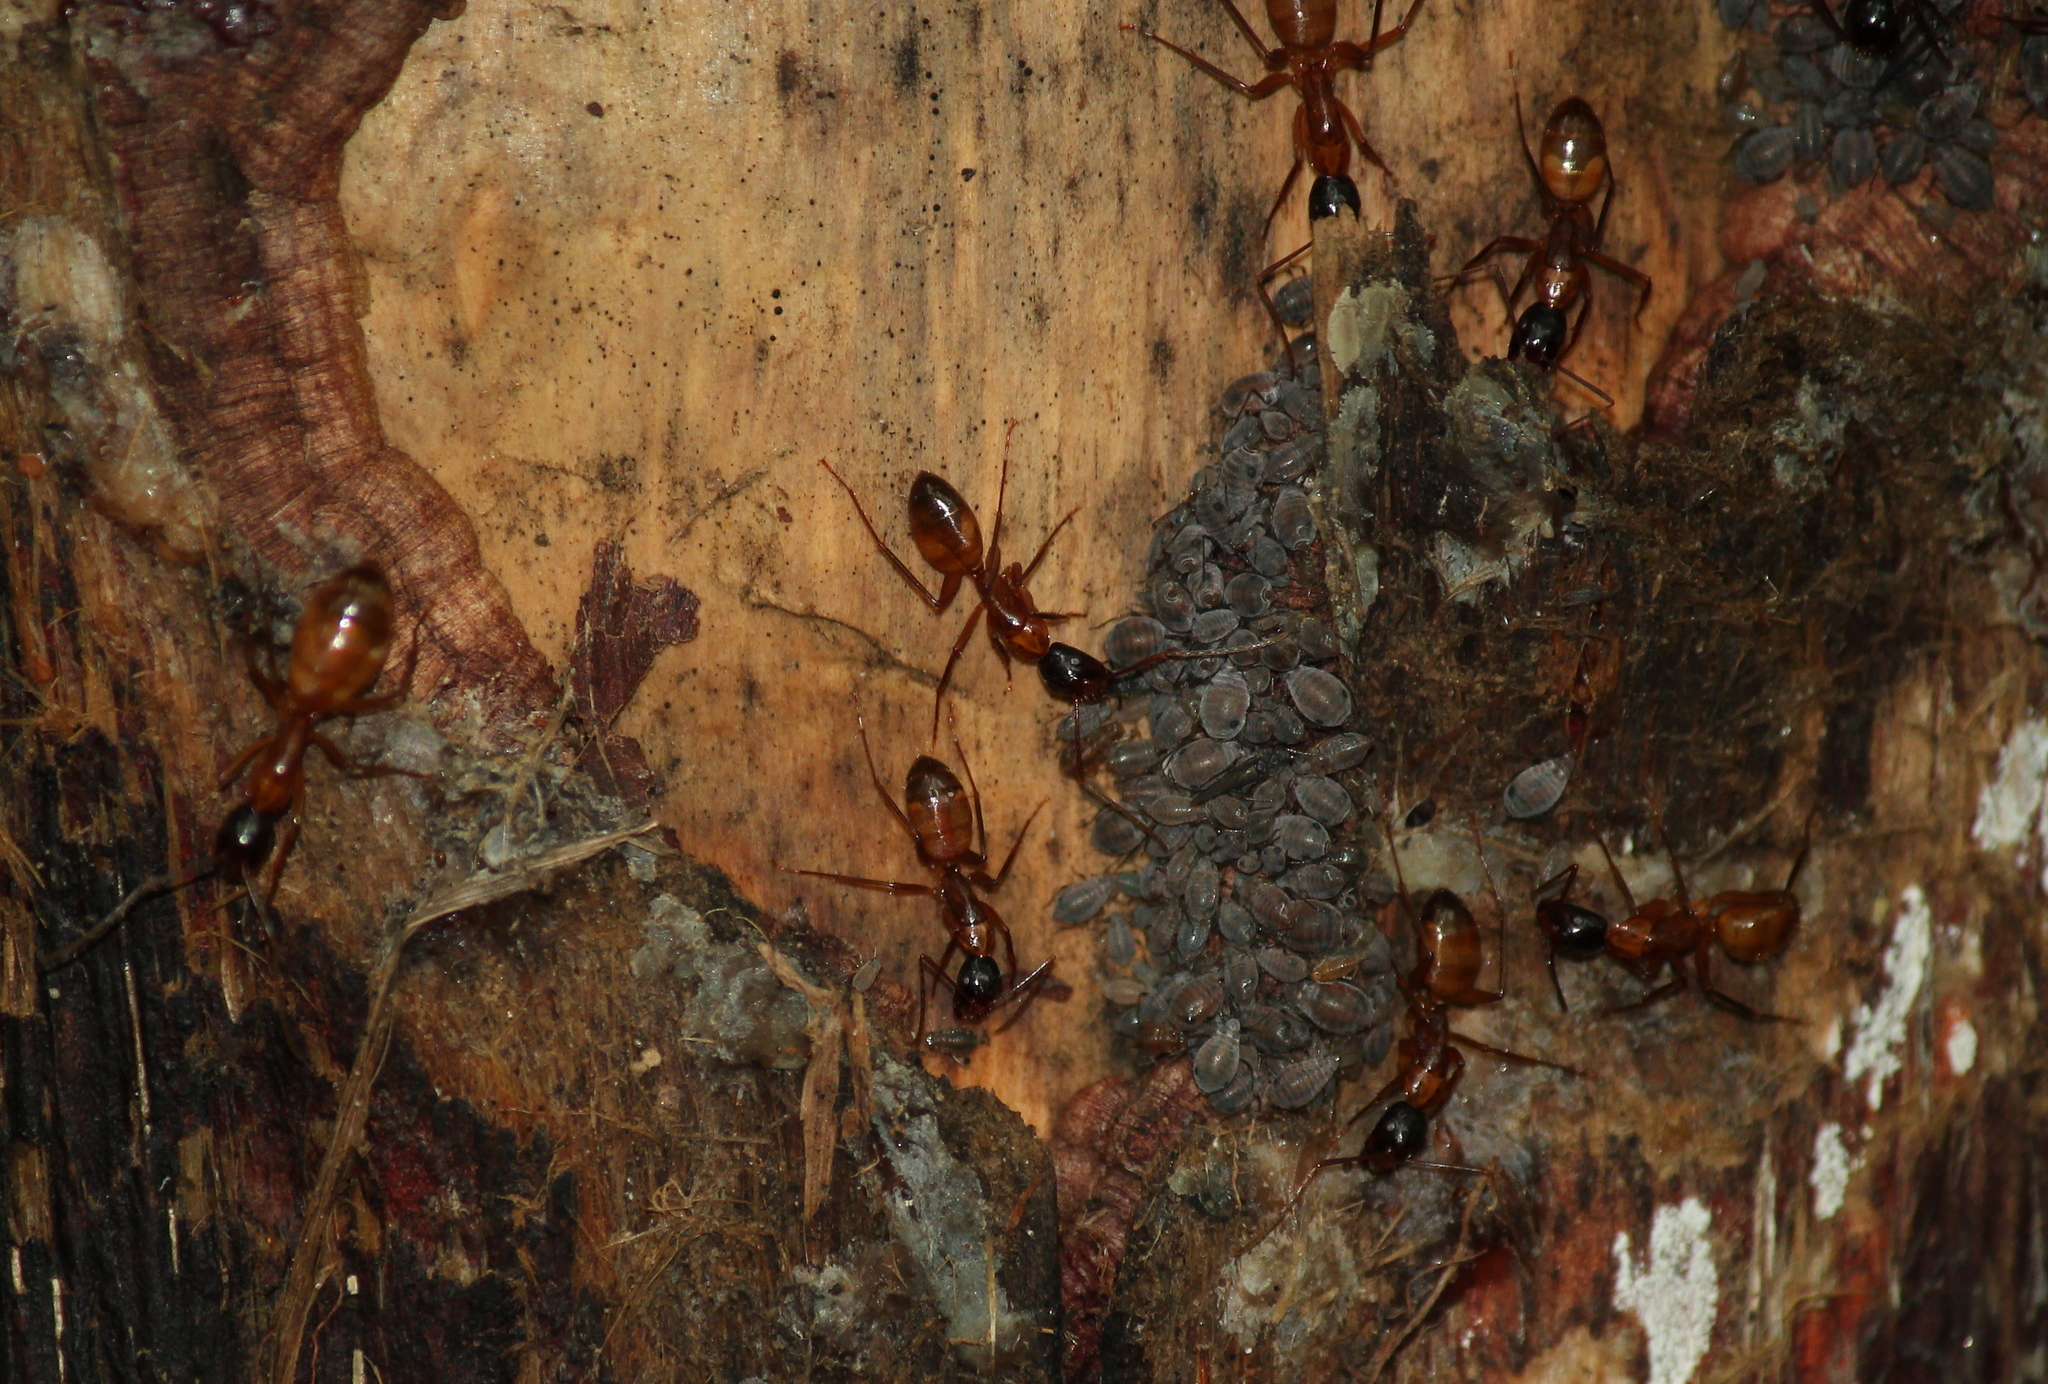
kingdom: Animalia
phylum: Arthropoda
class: Insecta
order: Hymenoptera
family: Formicidae
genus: Camponotus
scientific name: Camponotus americanus
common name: American carpenter ant
